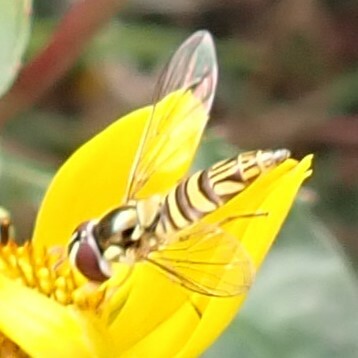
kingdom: Animalia
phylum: Arthropoda
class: Insecta
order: Diptera
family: Syrphidae
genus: Allograpta
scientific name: Allograpta obliqua
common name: Common oblique syrphid
